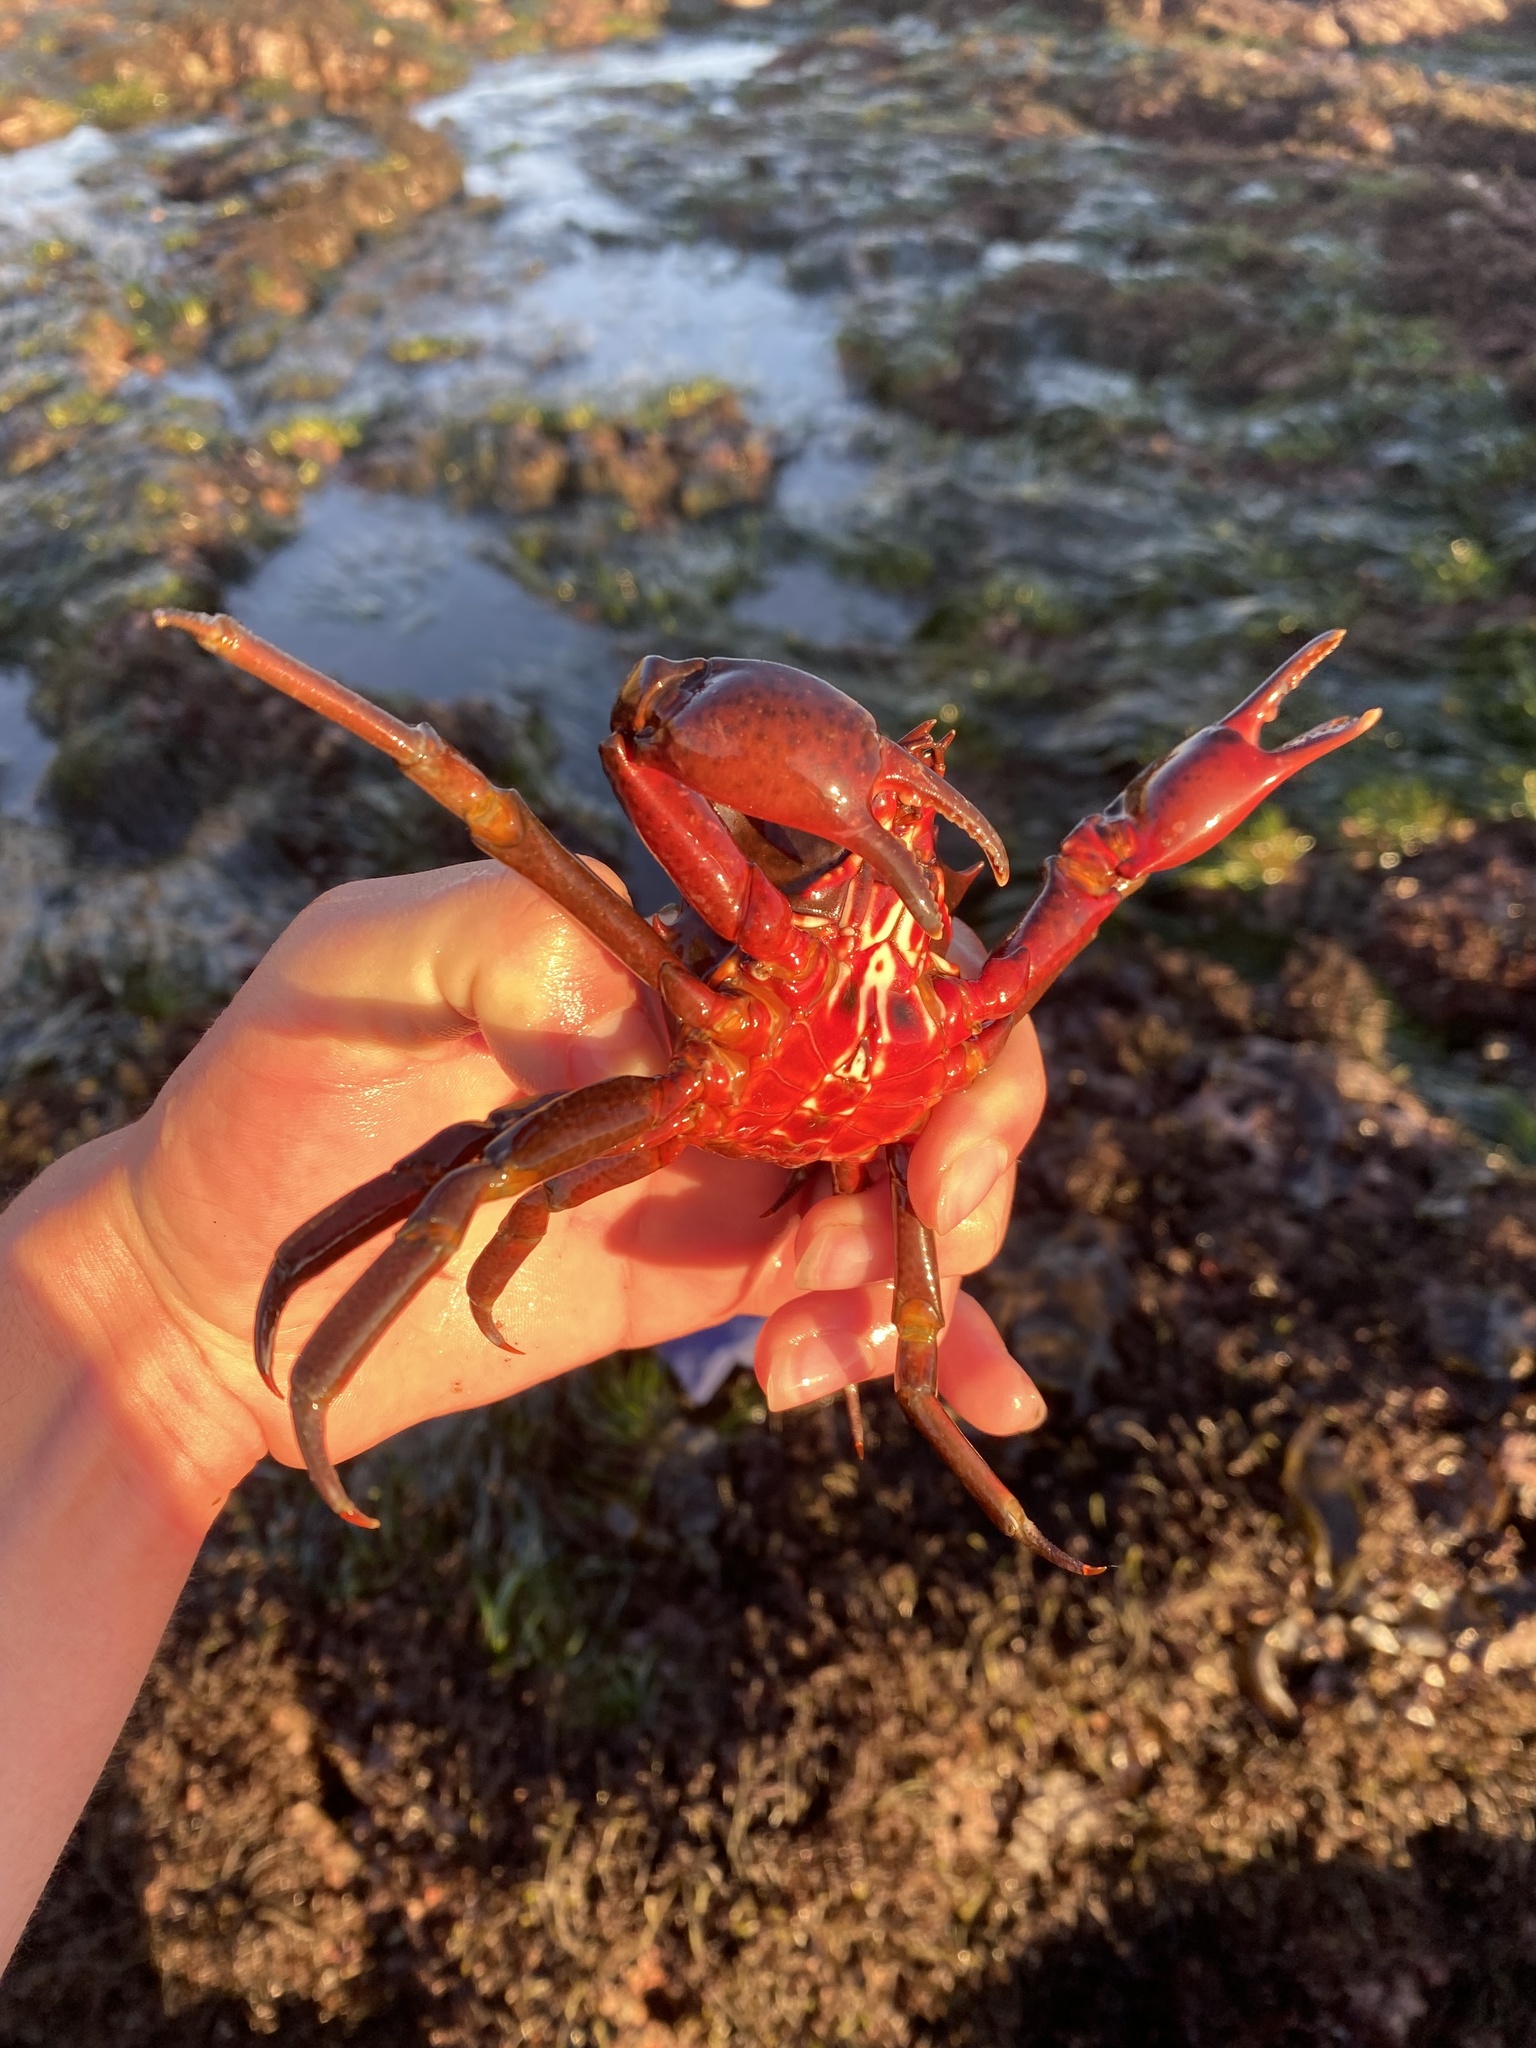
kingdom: Animalia
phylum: Arthropoda
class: Malacostraca
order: Decapoda
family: Epialtidae
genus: Pugettia
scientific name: Pugettia producta
